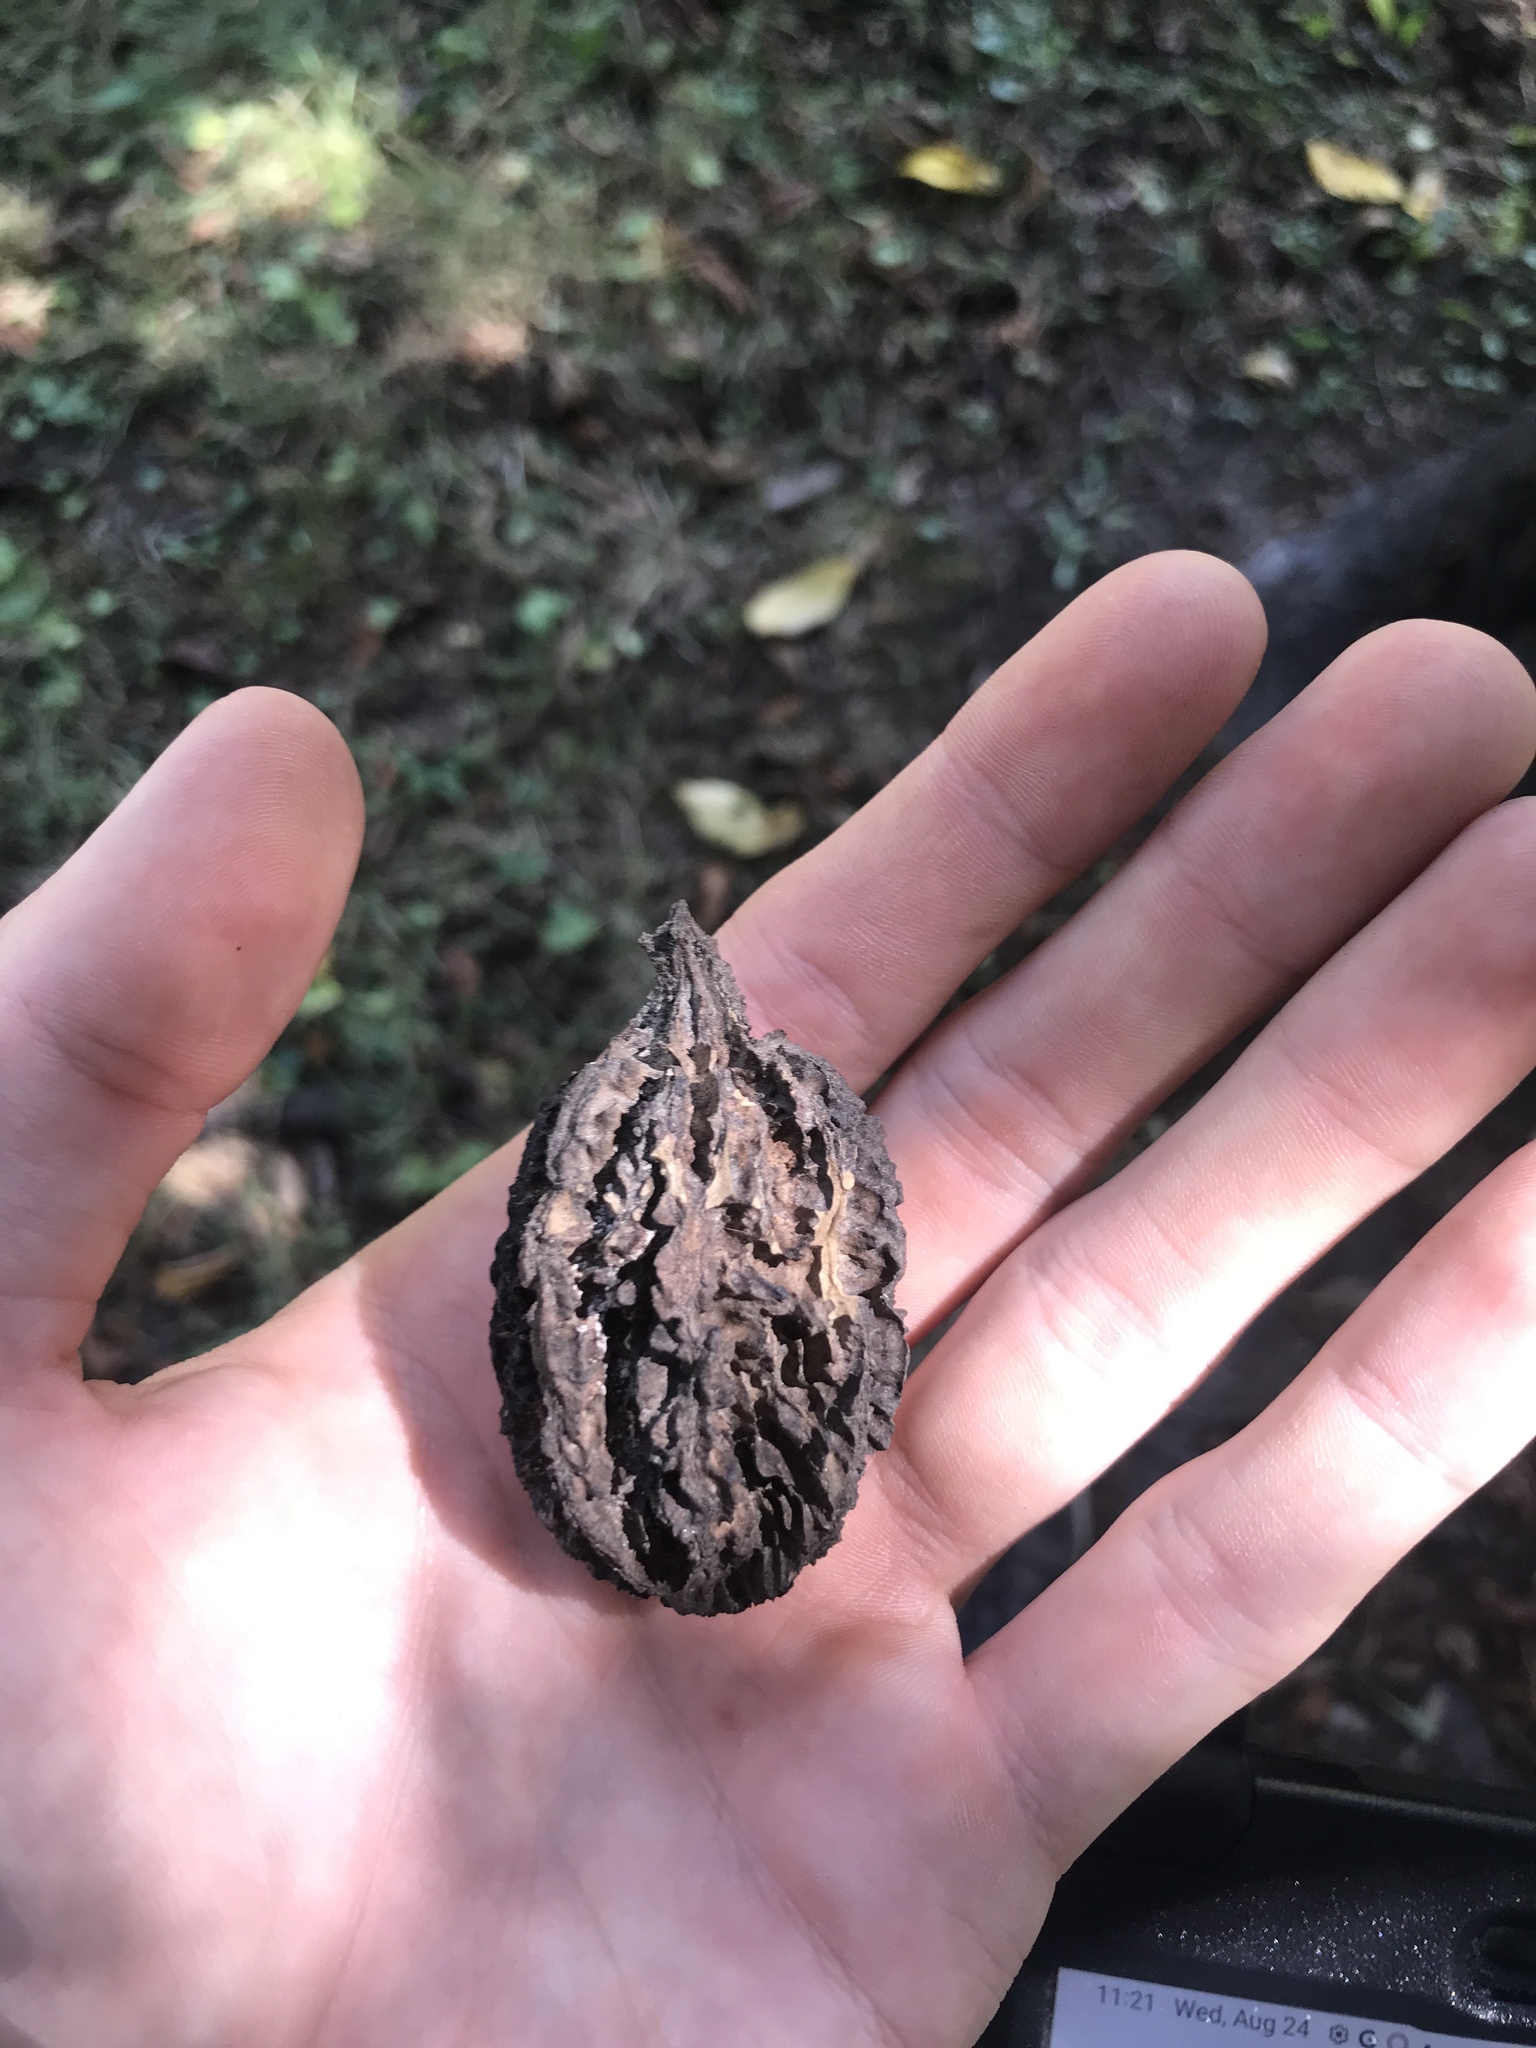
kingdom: Plantae
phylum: Tracheophyta
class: Magnoliopsida
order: Fagales
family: Juglandaceae
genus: Juglans
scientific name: Juglans cinerea
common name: Butternut
